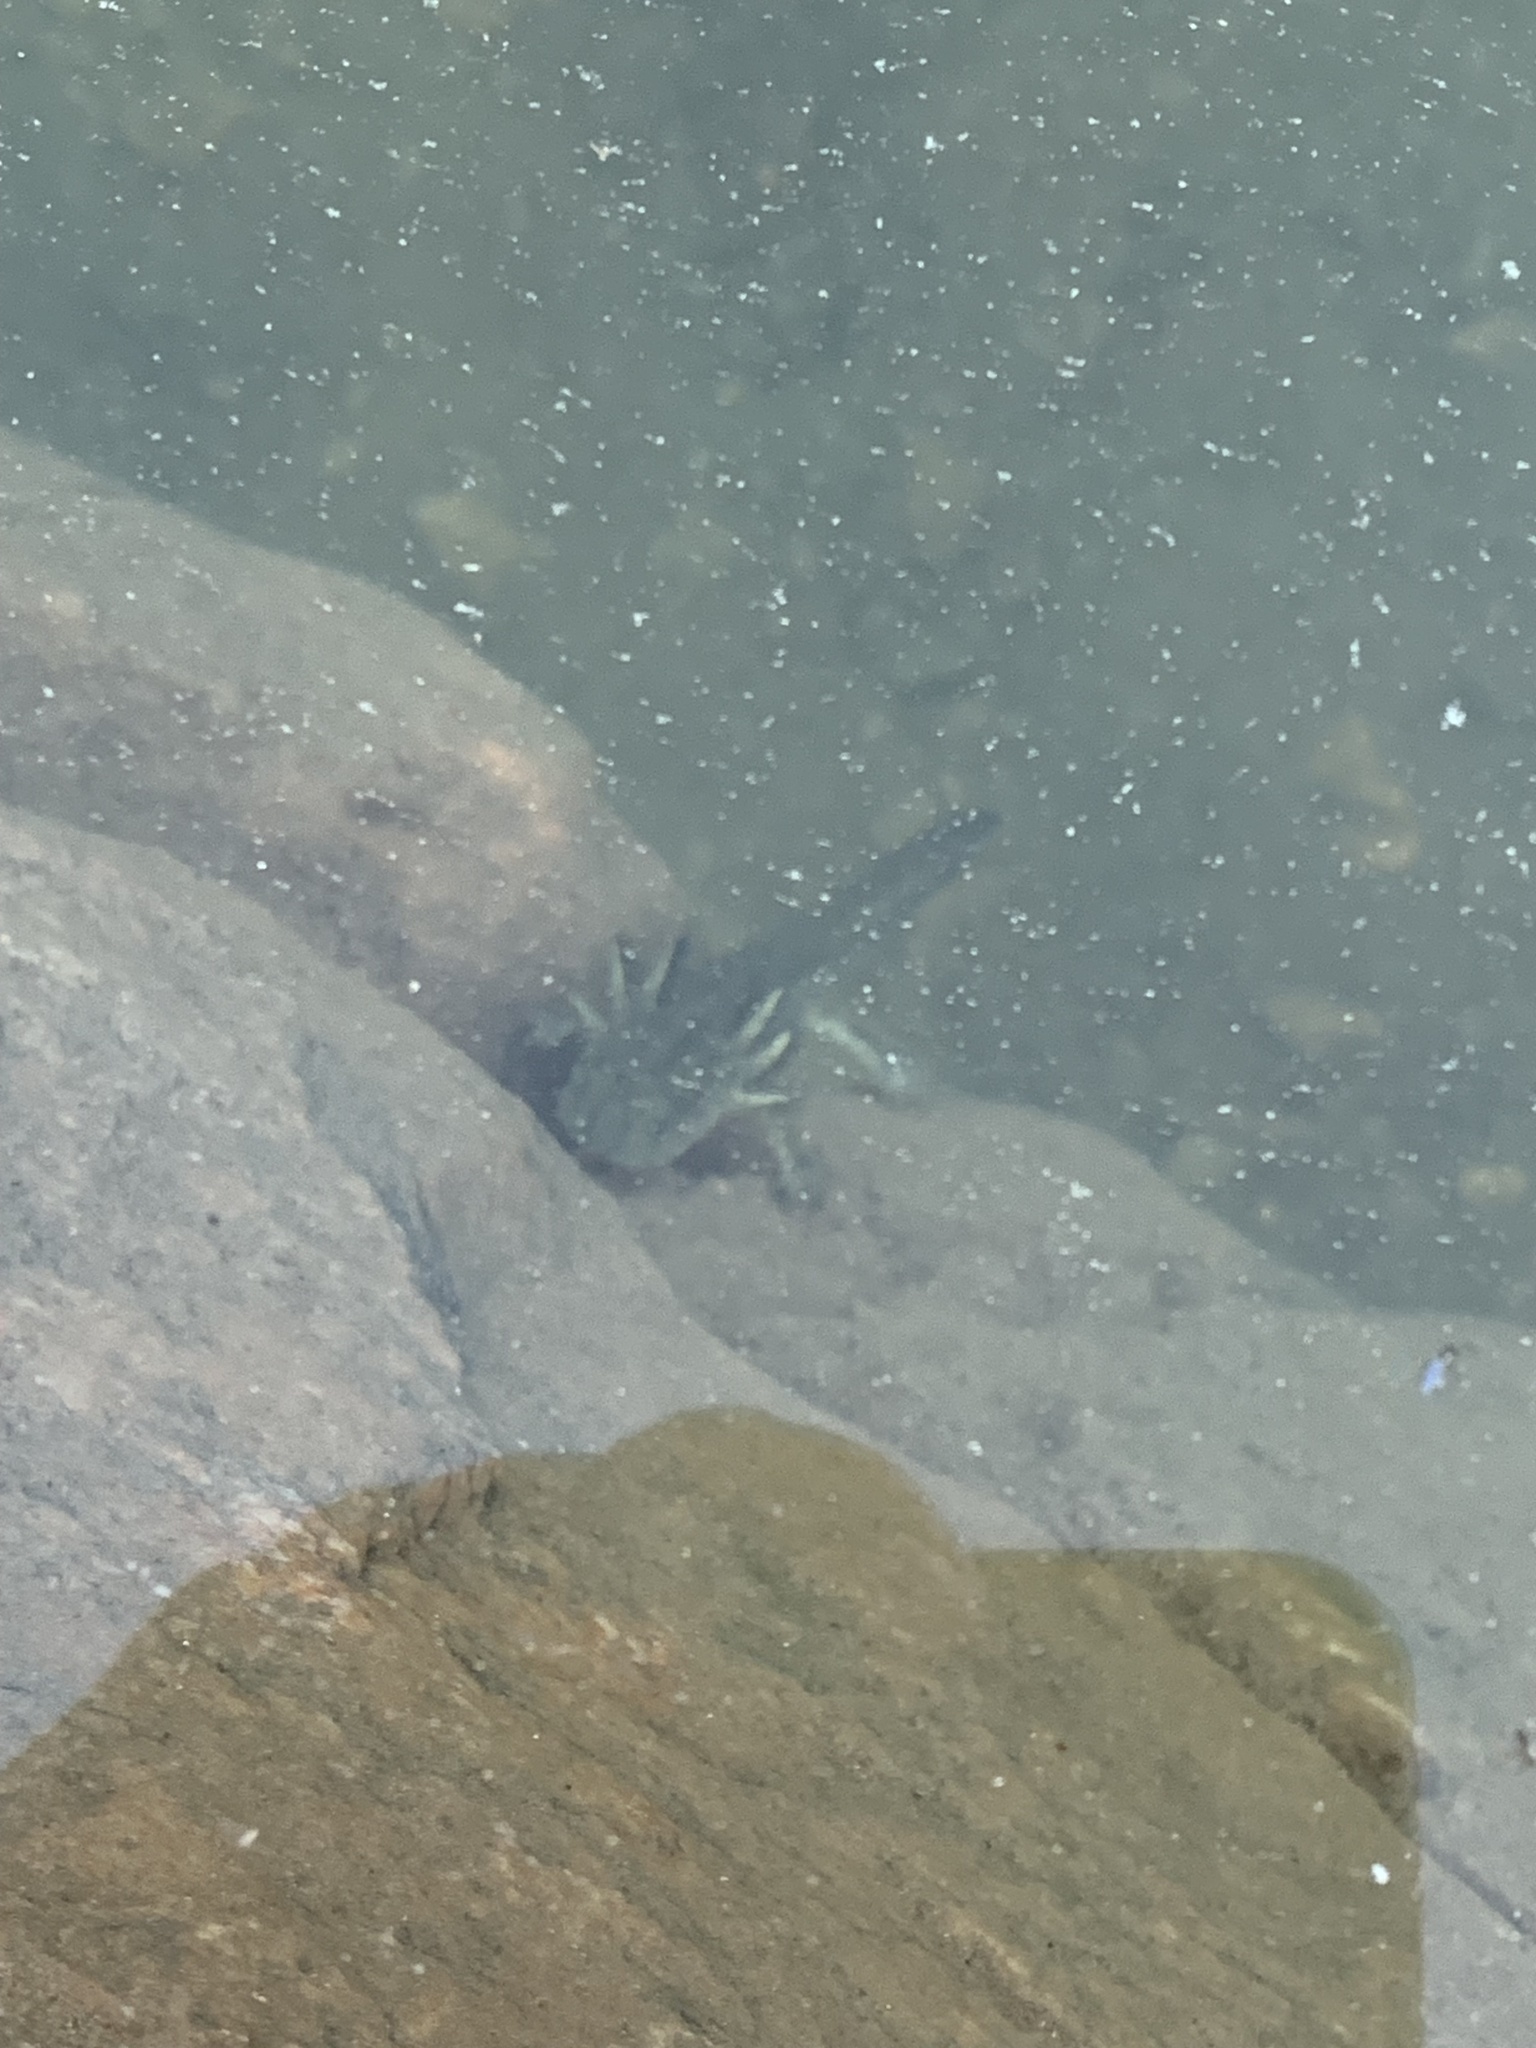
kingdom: Animalia
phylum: Chordata
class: Amphibia
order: Caudata
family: Ambystomatidae
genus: Ambystoma
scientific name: Ambystoma mavortium
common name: Western tiger salamander
